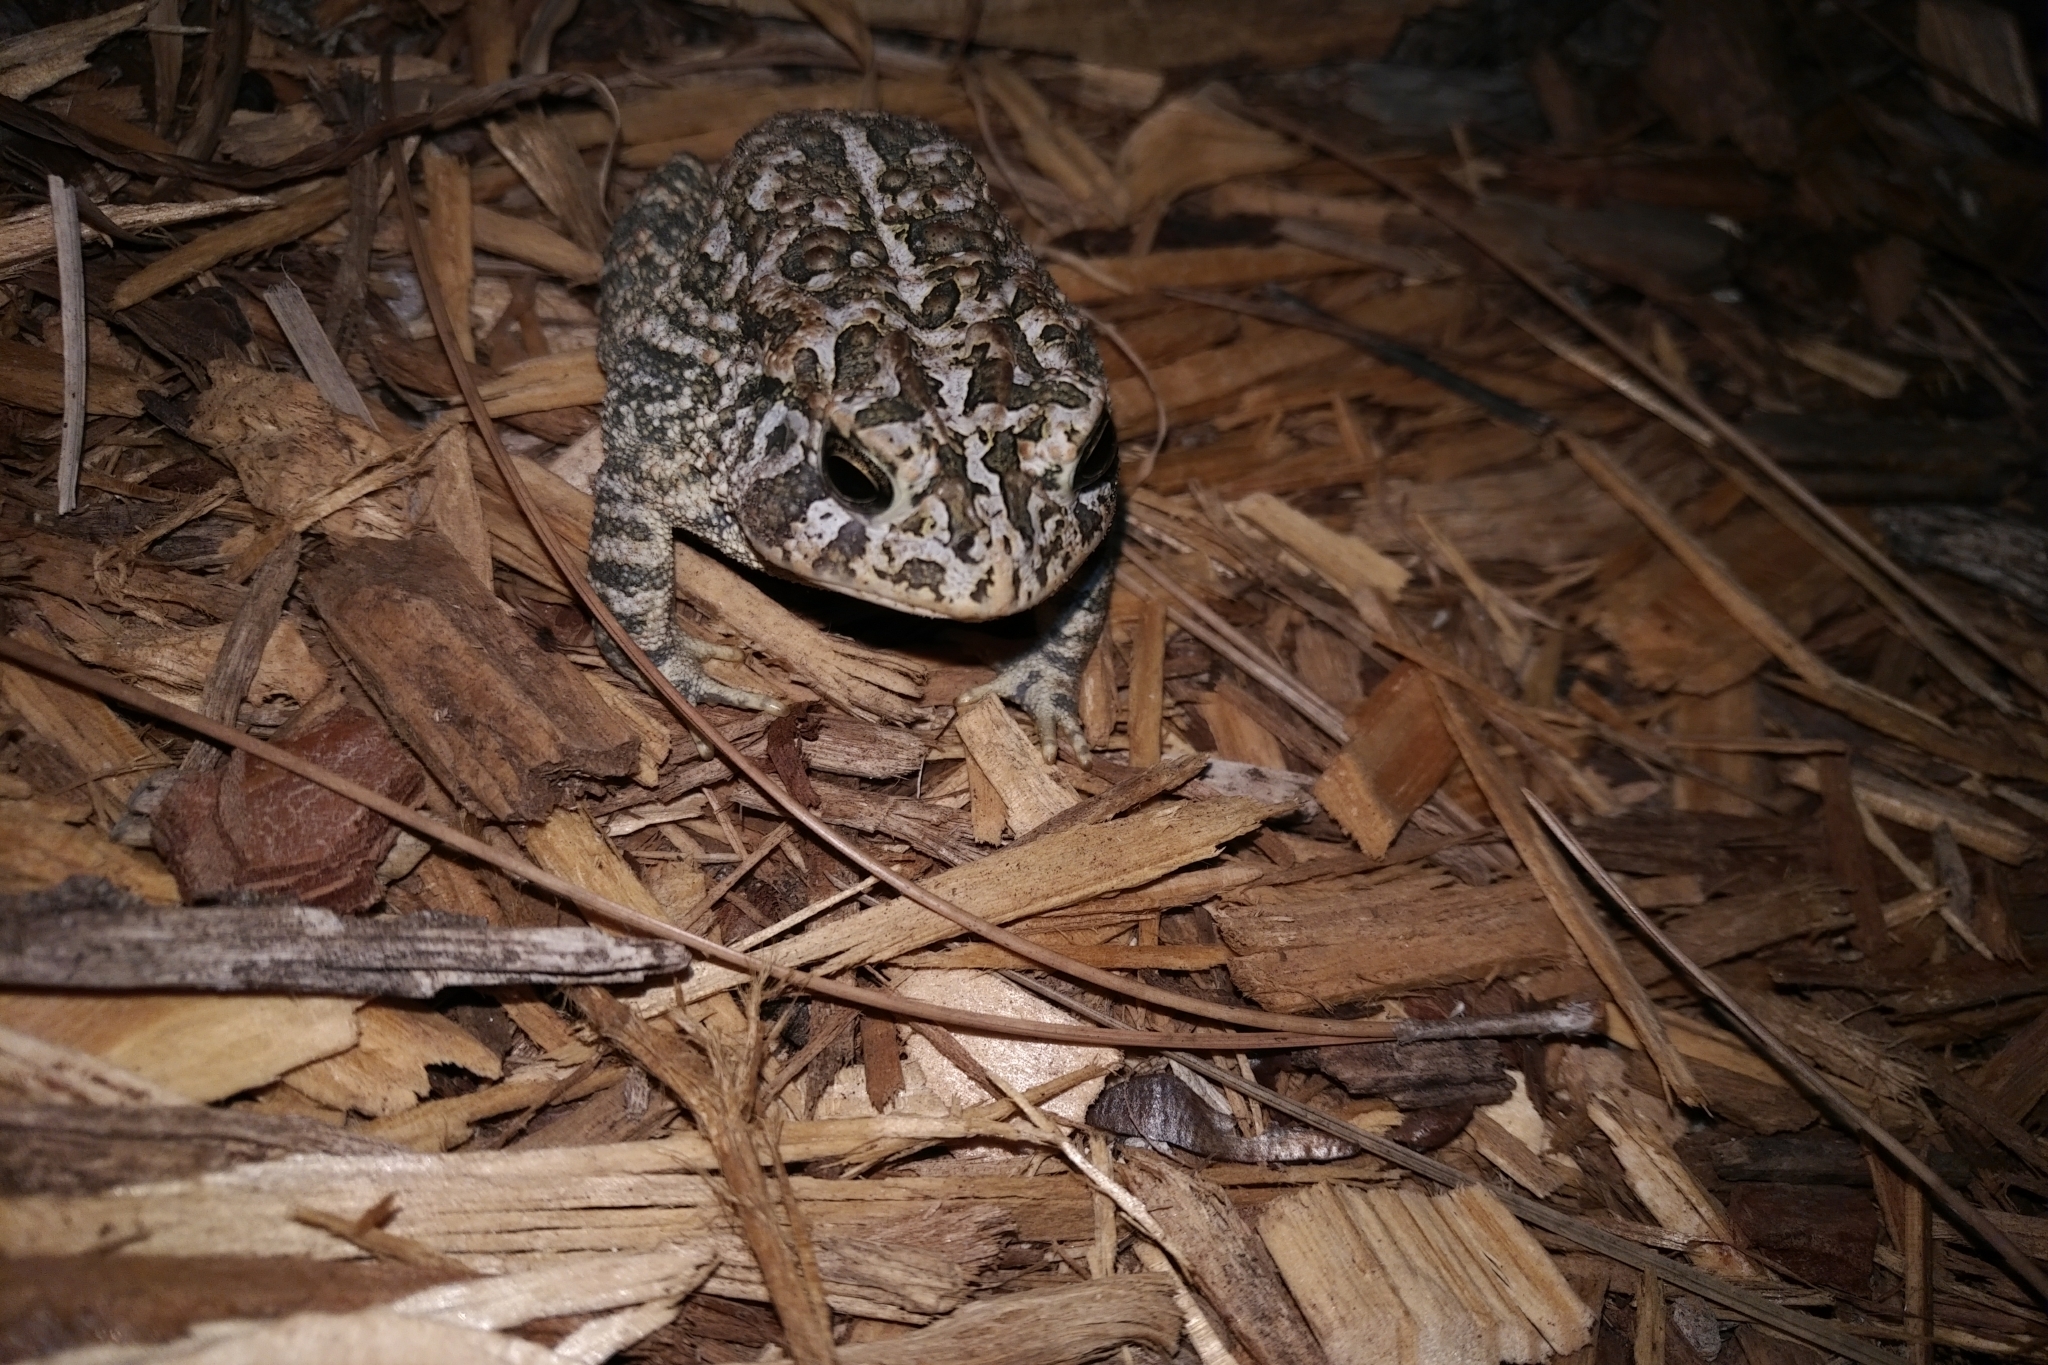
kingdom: Animalia
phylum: Chordata
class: Amphibia
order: Anura
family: Bufonidae
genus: Anaxyrus
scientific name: Anaxyrus terrestris
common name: Southern toad
